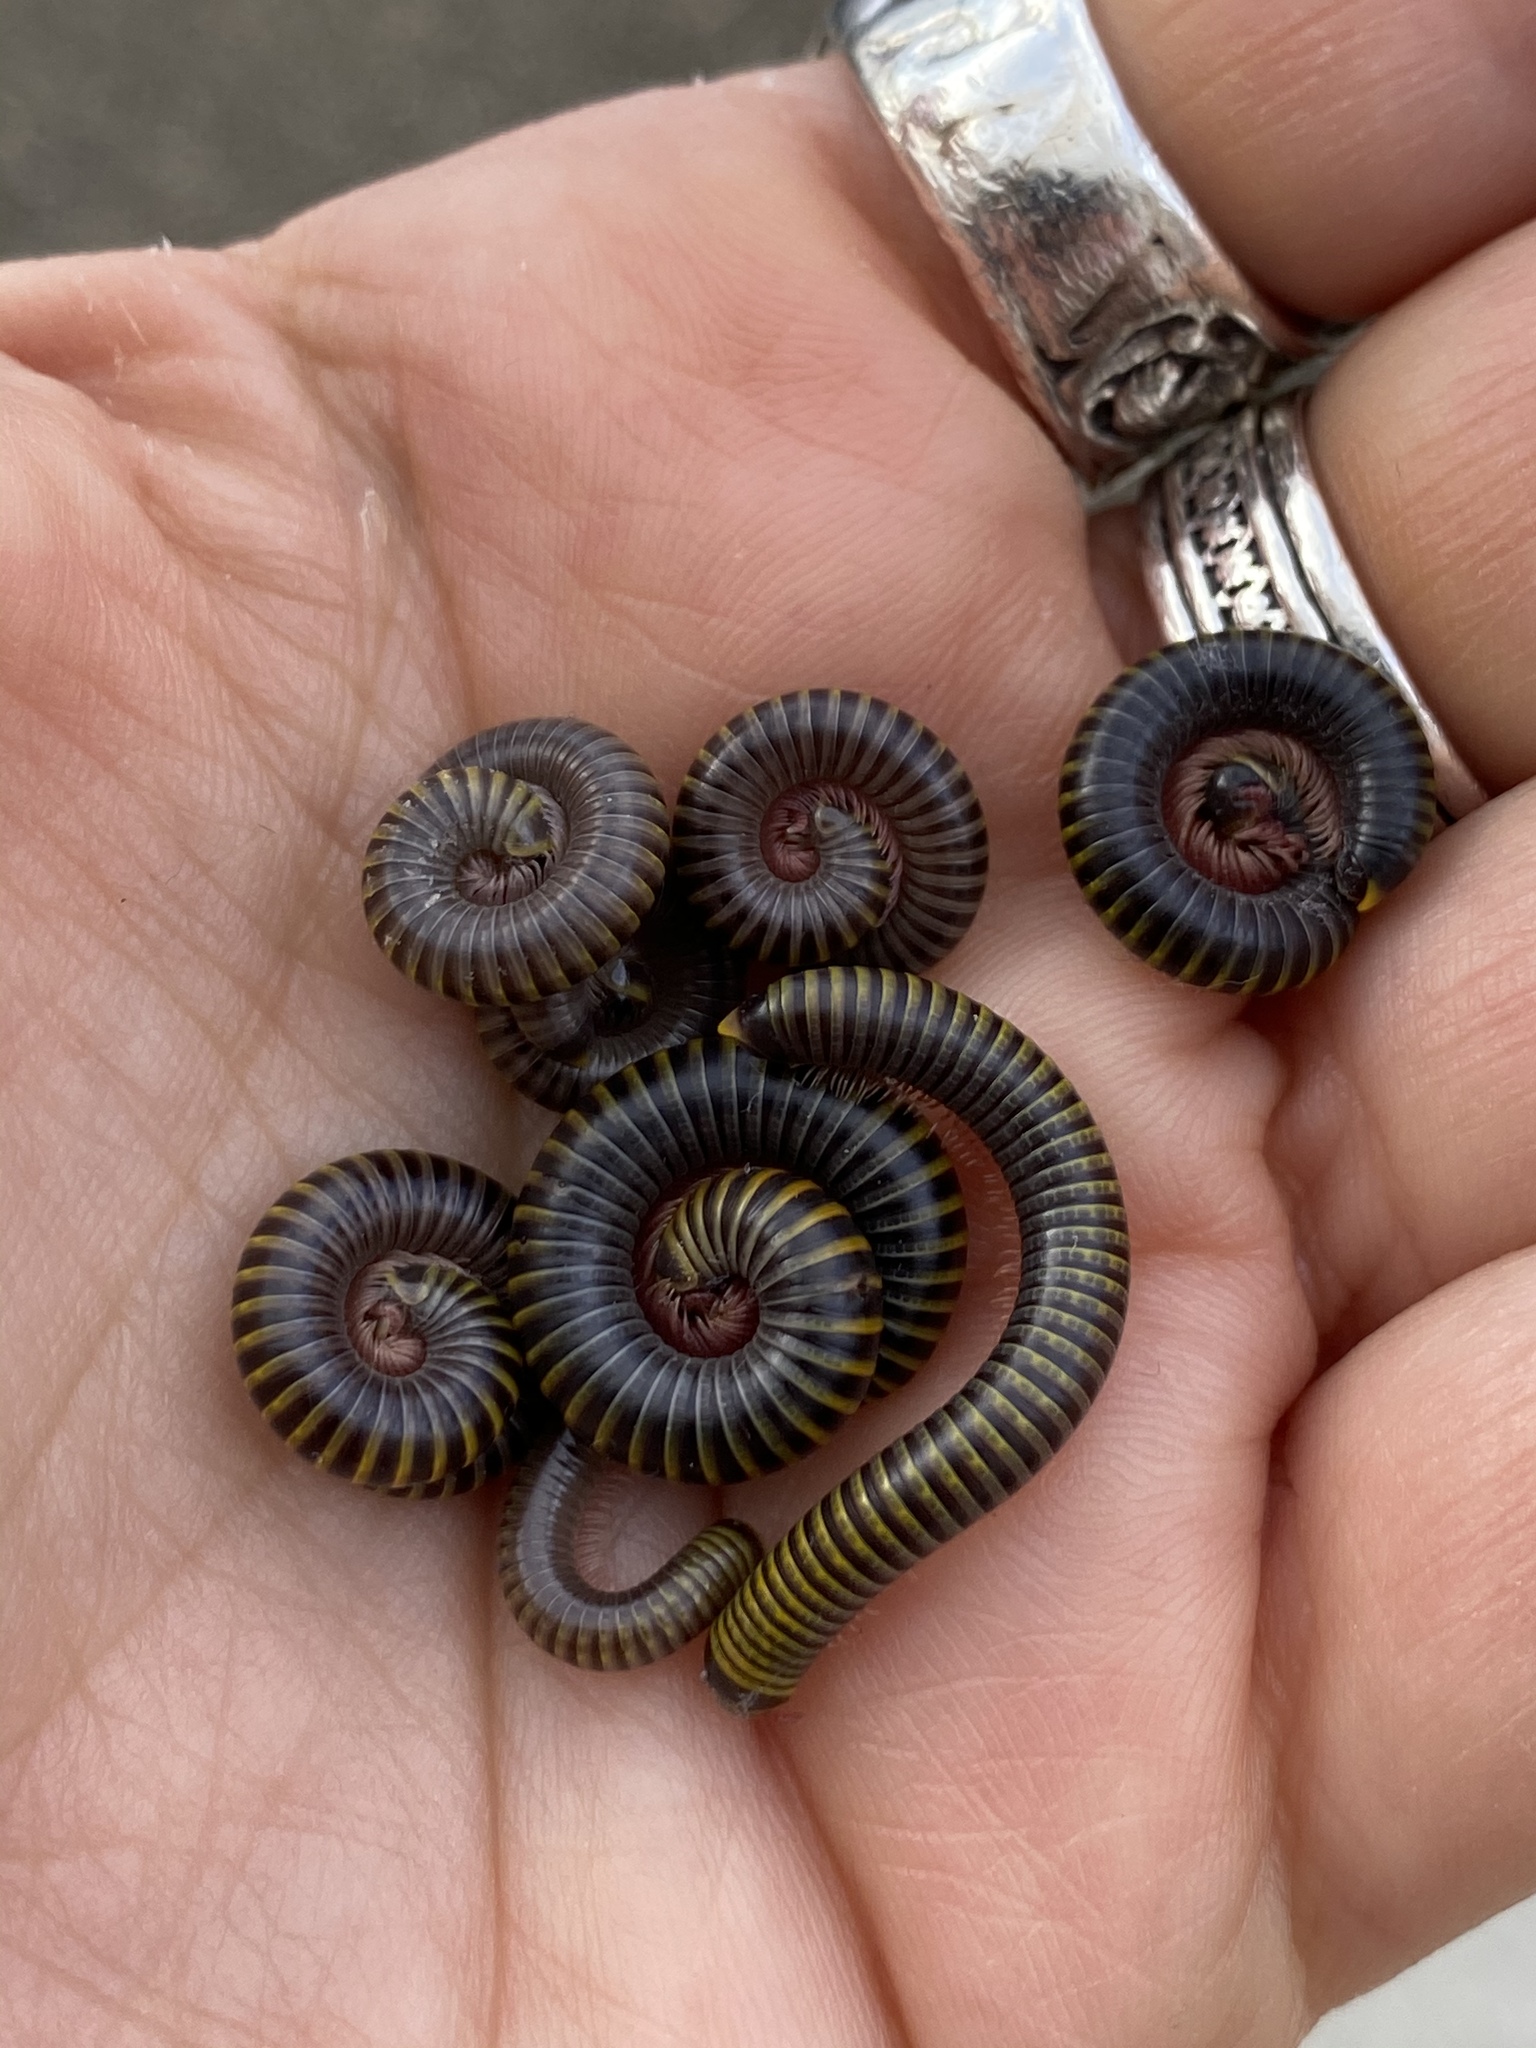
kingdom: Animalia
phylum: Arthropoda
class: Diplopoda
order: Spirobolida
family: Rhinocricidae
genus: Anadenobolus
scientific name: Anadenobolus monilicornis
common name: Caribbean millipede
